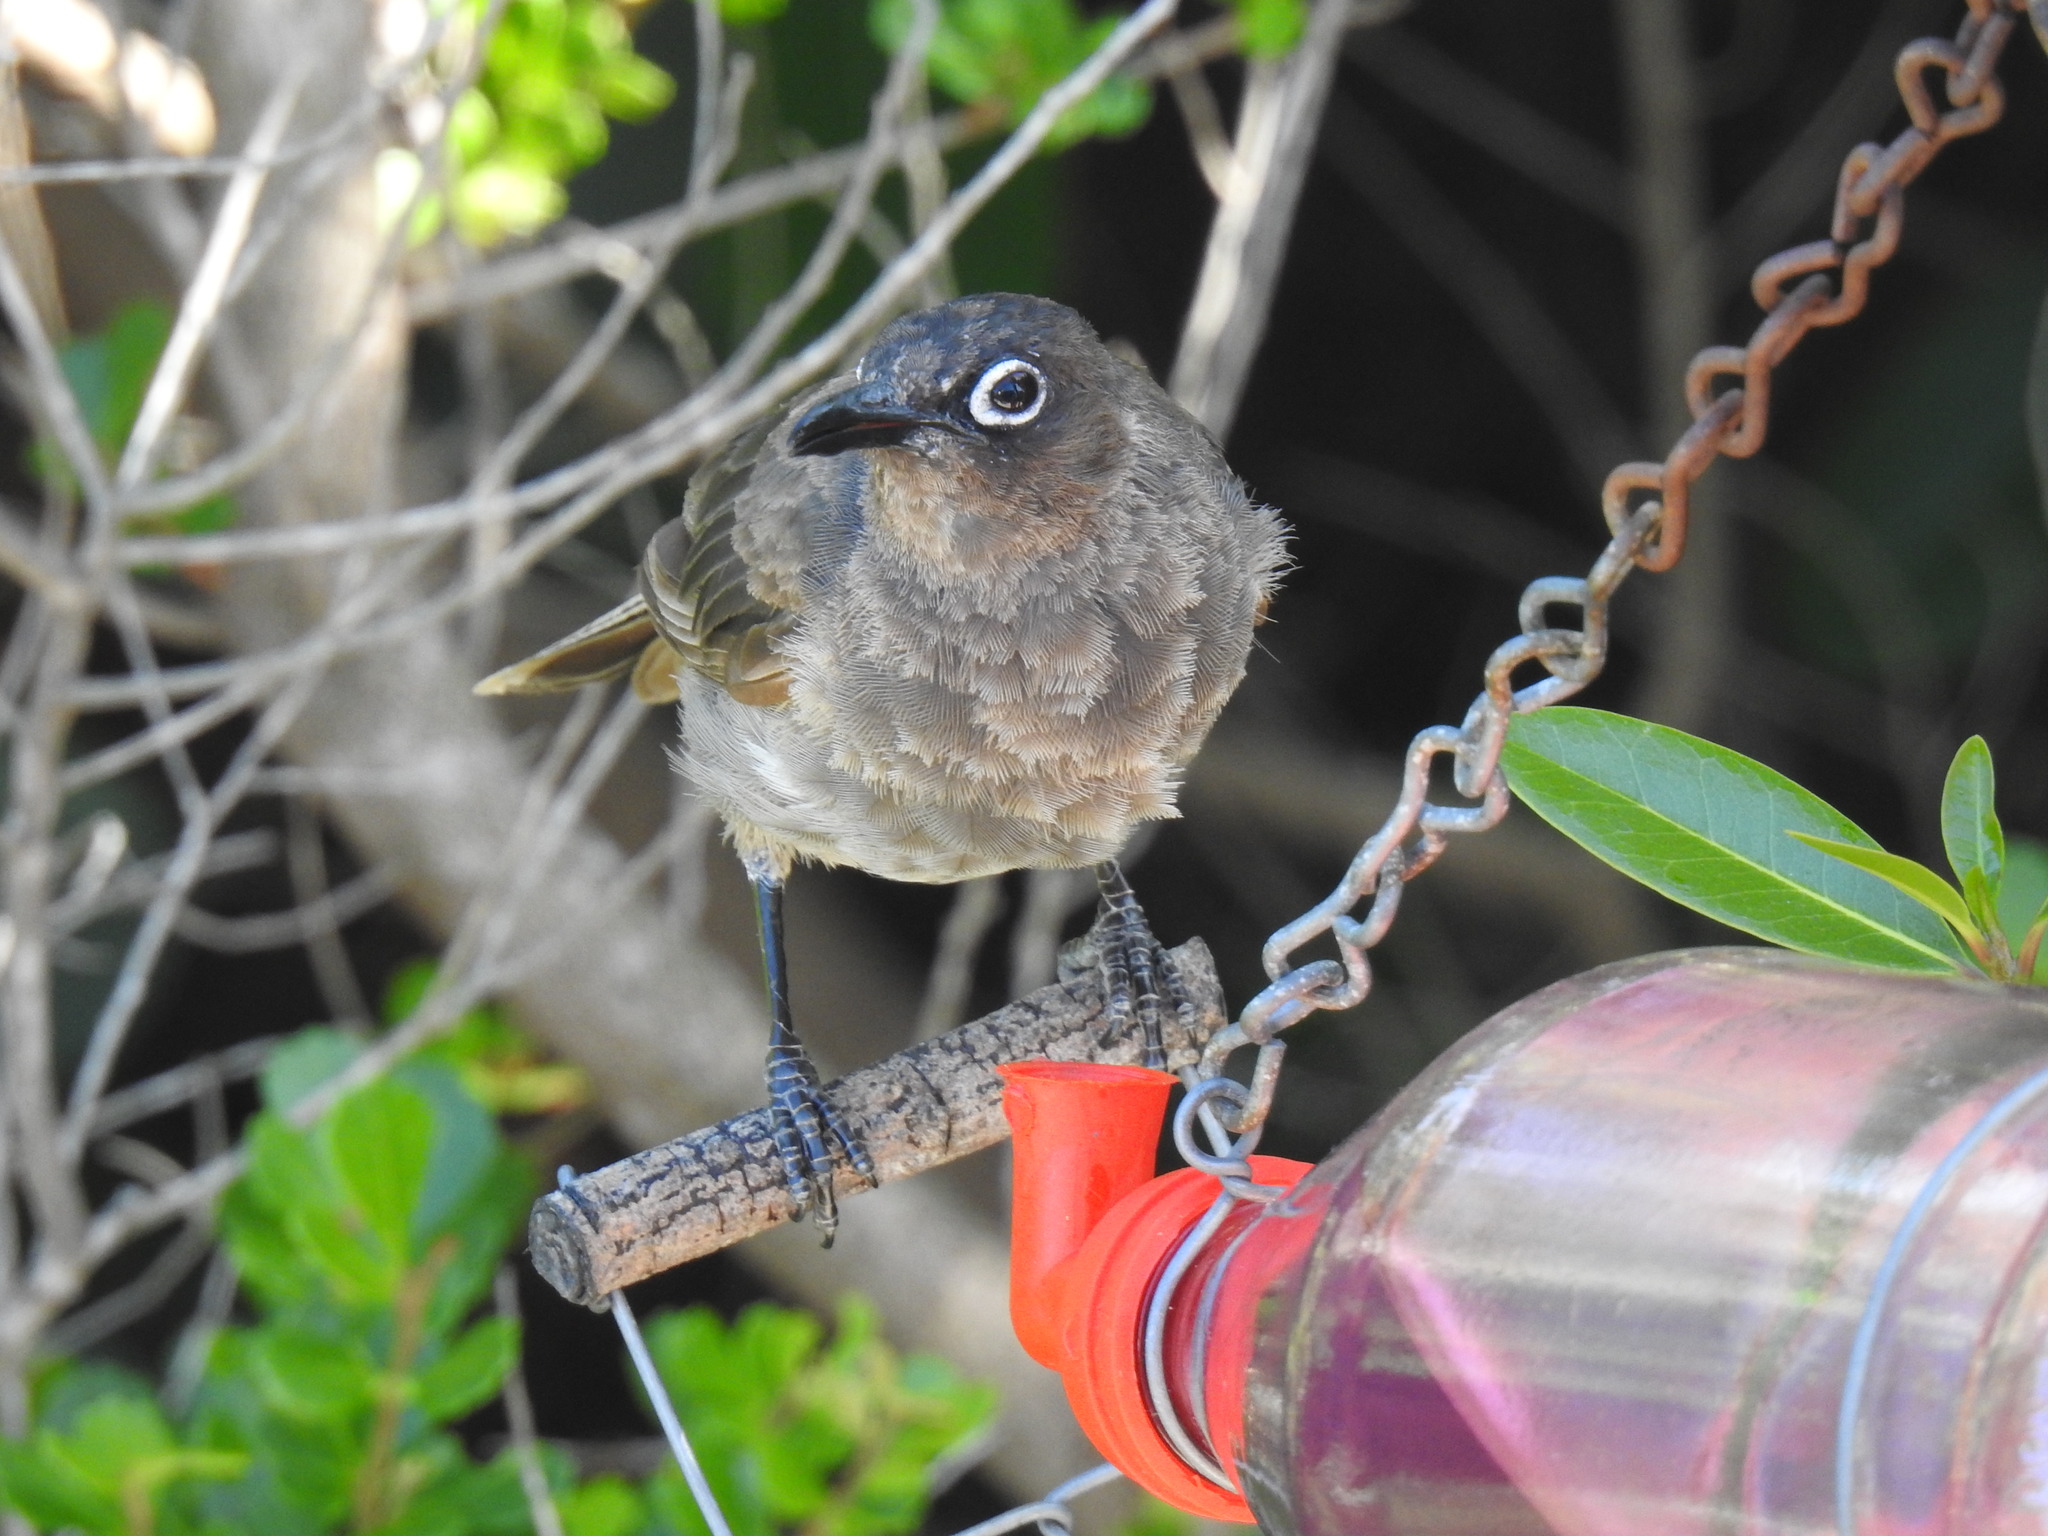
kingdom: Animalia
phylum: Chordata
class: Aves
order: Passeriformes
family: Pycnonotidae
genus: Pycnonotus
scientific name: Pycnonotus capensis
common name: Cape bulbul
